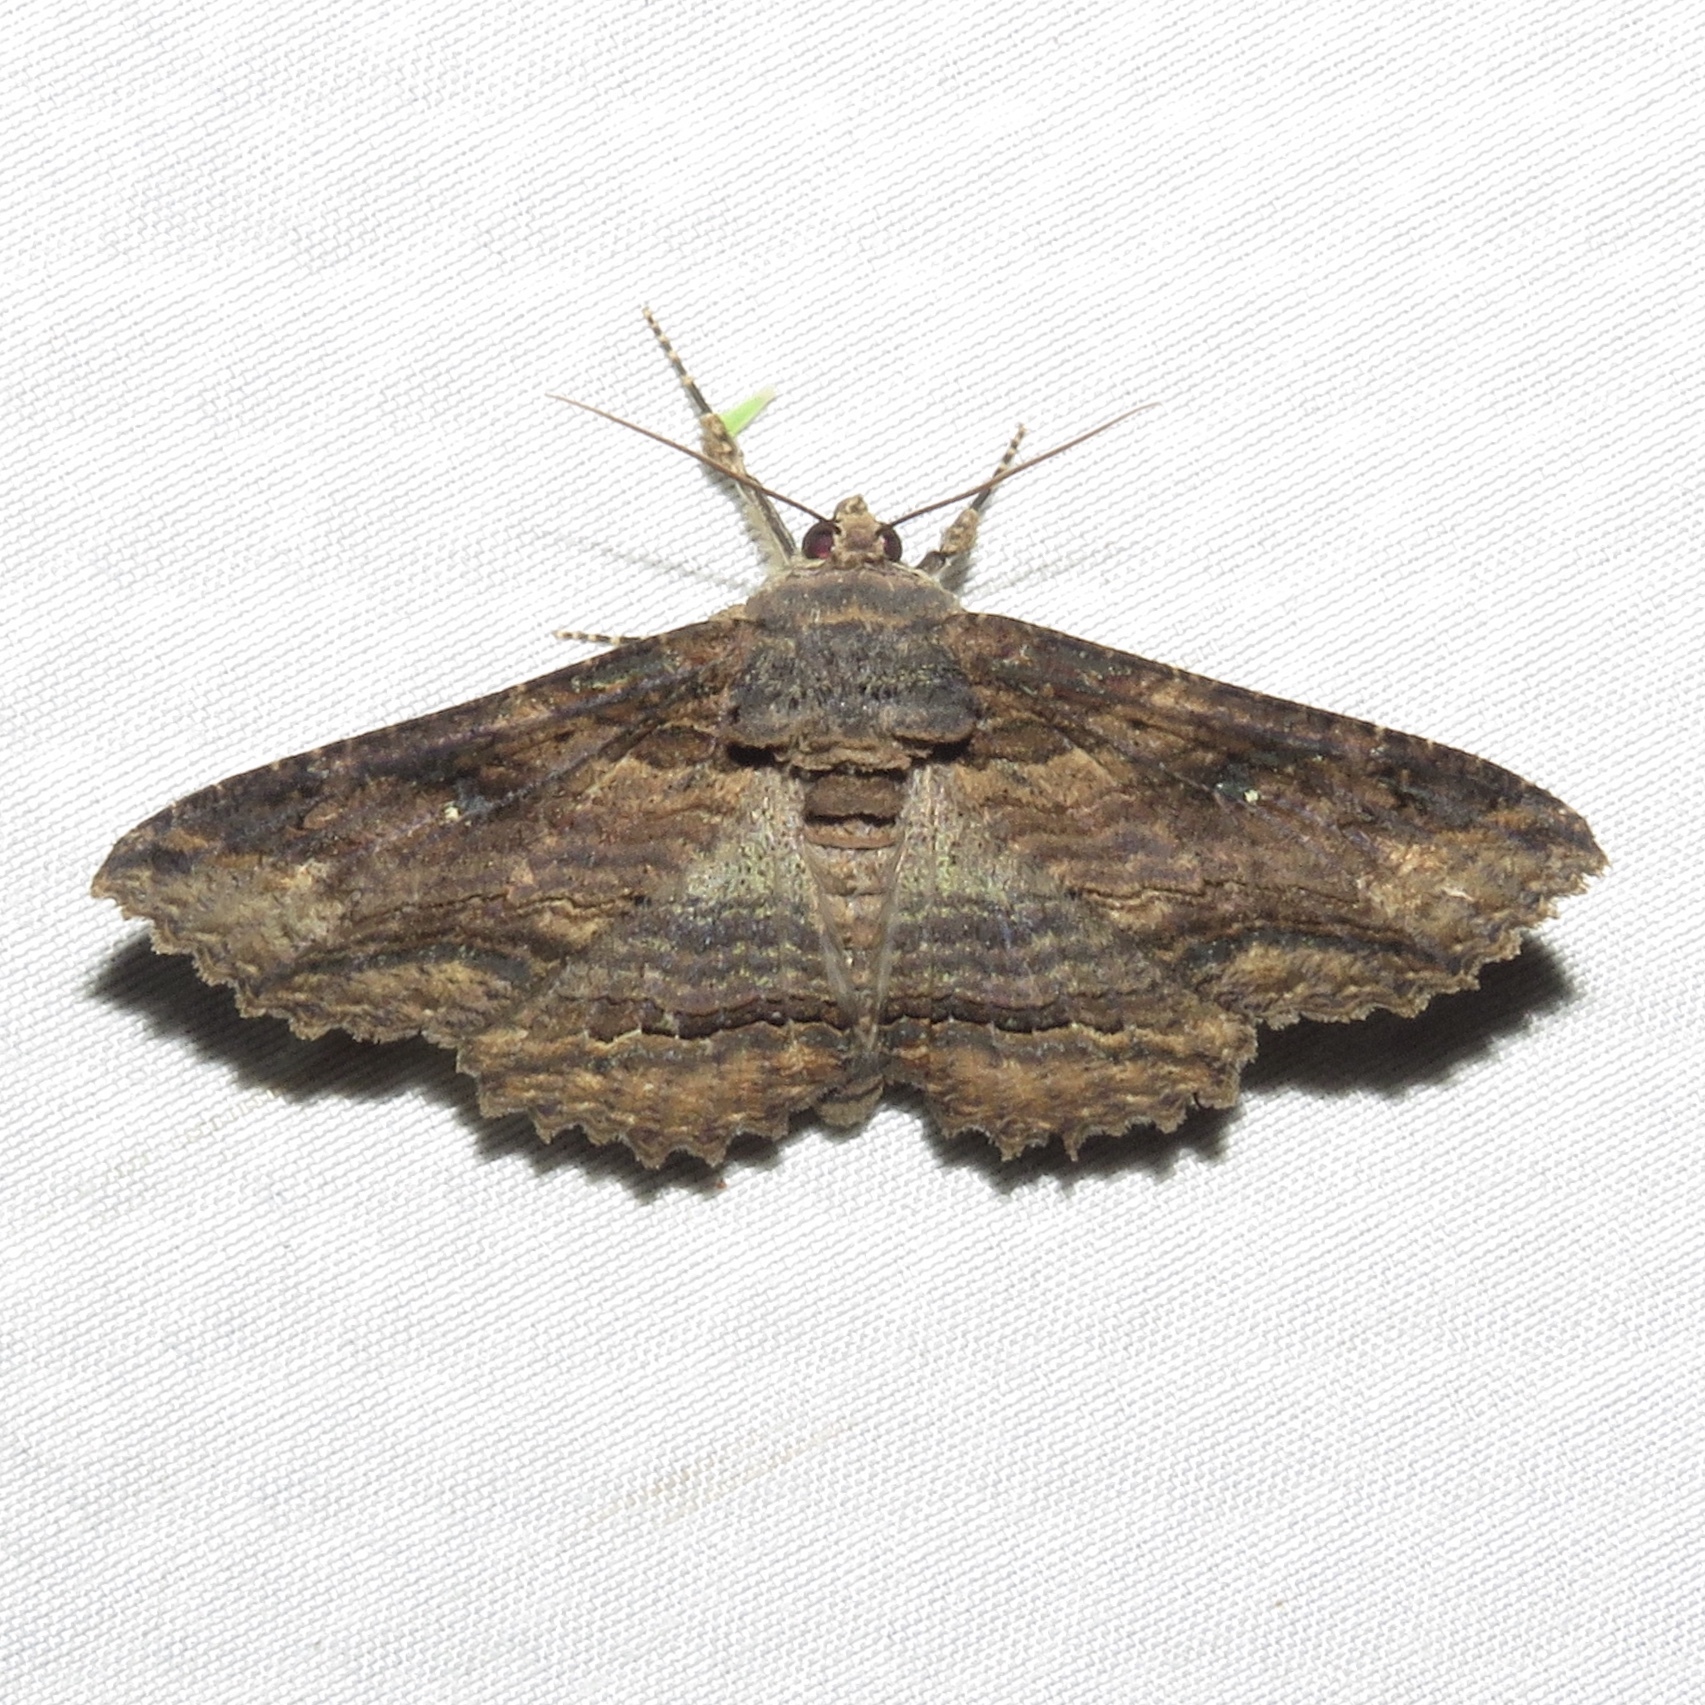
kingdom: Animalia
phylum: Arthropoda
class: Insecta
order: Lepidoptera
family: Erebidae
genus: Zale
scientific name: Zale lunata
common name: Lunate zale moth
